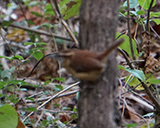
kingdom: Animalia
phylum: Chordata
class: Aves
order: Passeriformes
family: Troglodytidae
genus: Thryothorus
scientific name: Thryothorus ludovicianus
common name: Carolina wren
